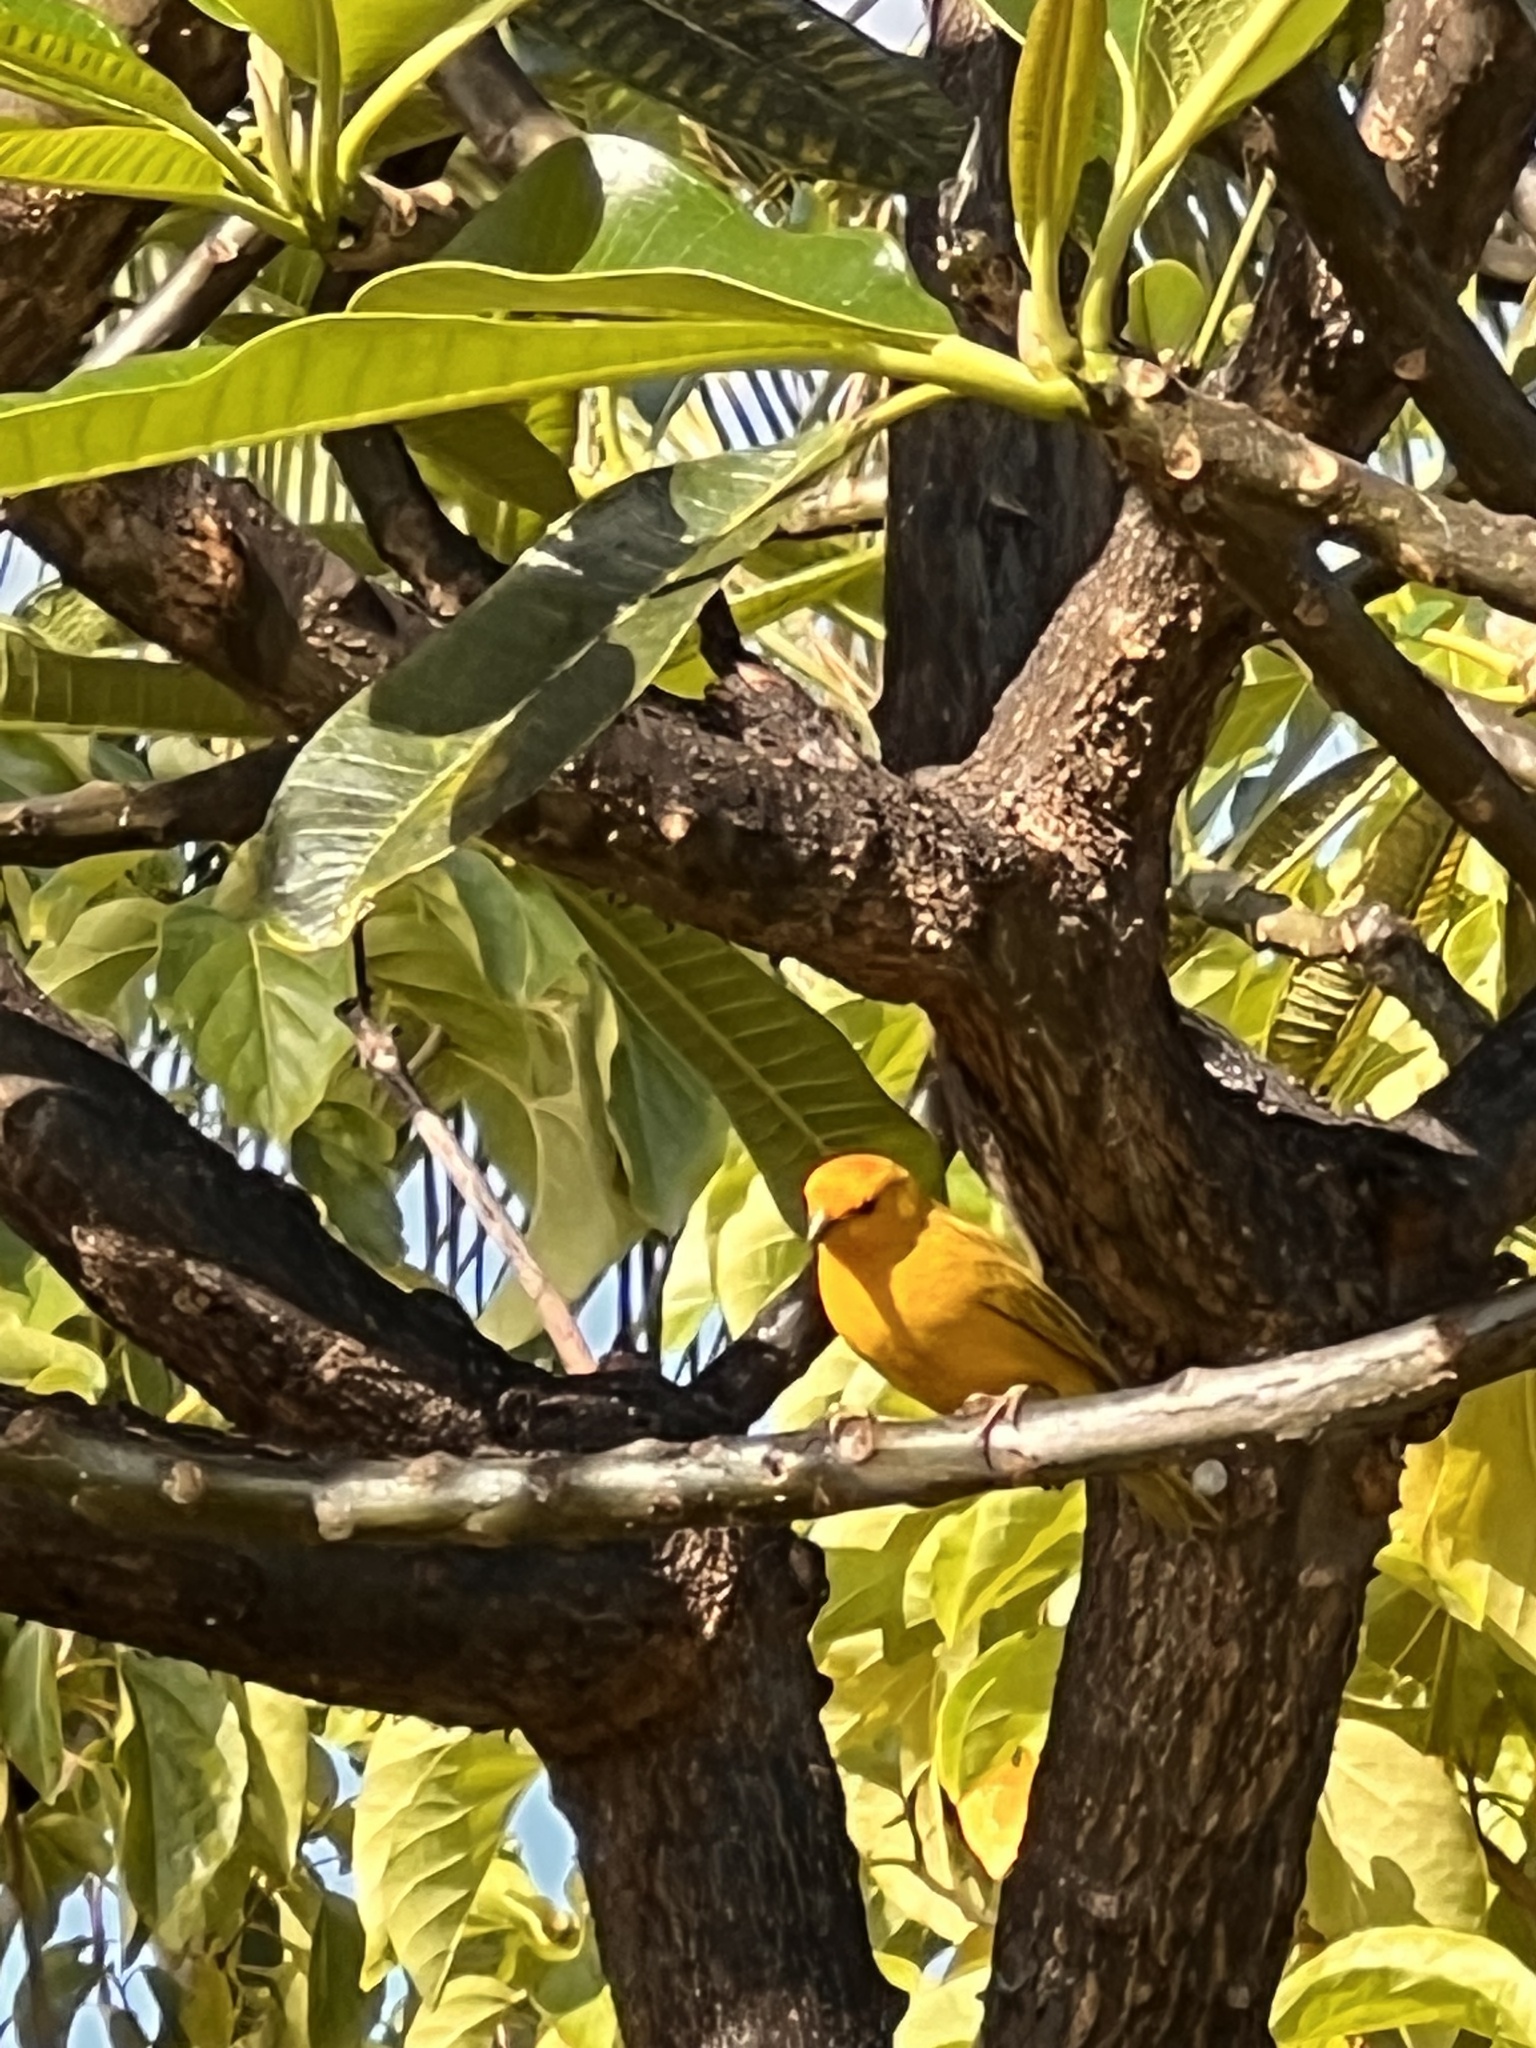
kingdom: Animalia
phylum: Chordata
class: Aves
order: Passeriformes
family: Thraupidae
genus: Sicalis
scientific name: Sicalis flaveola
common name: Saffron finch
